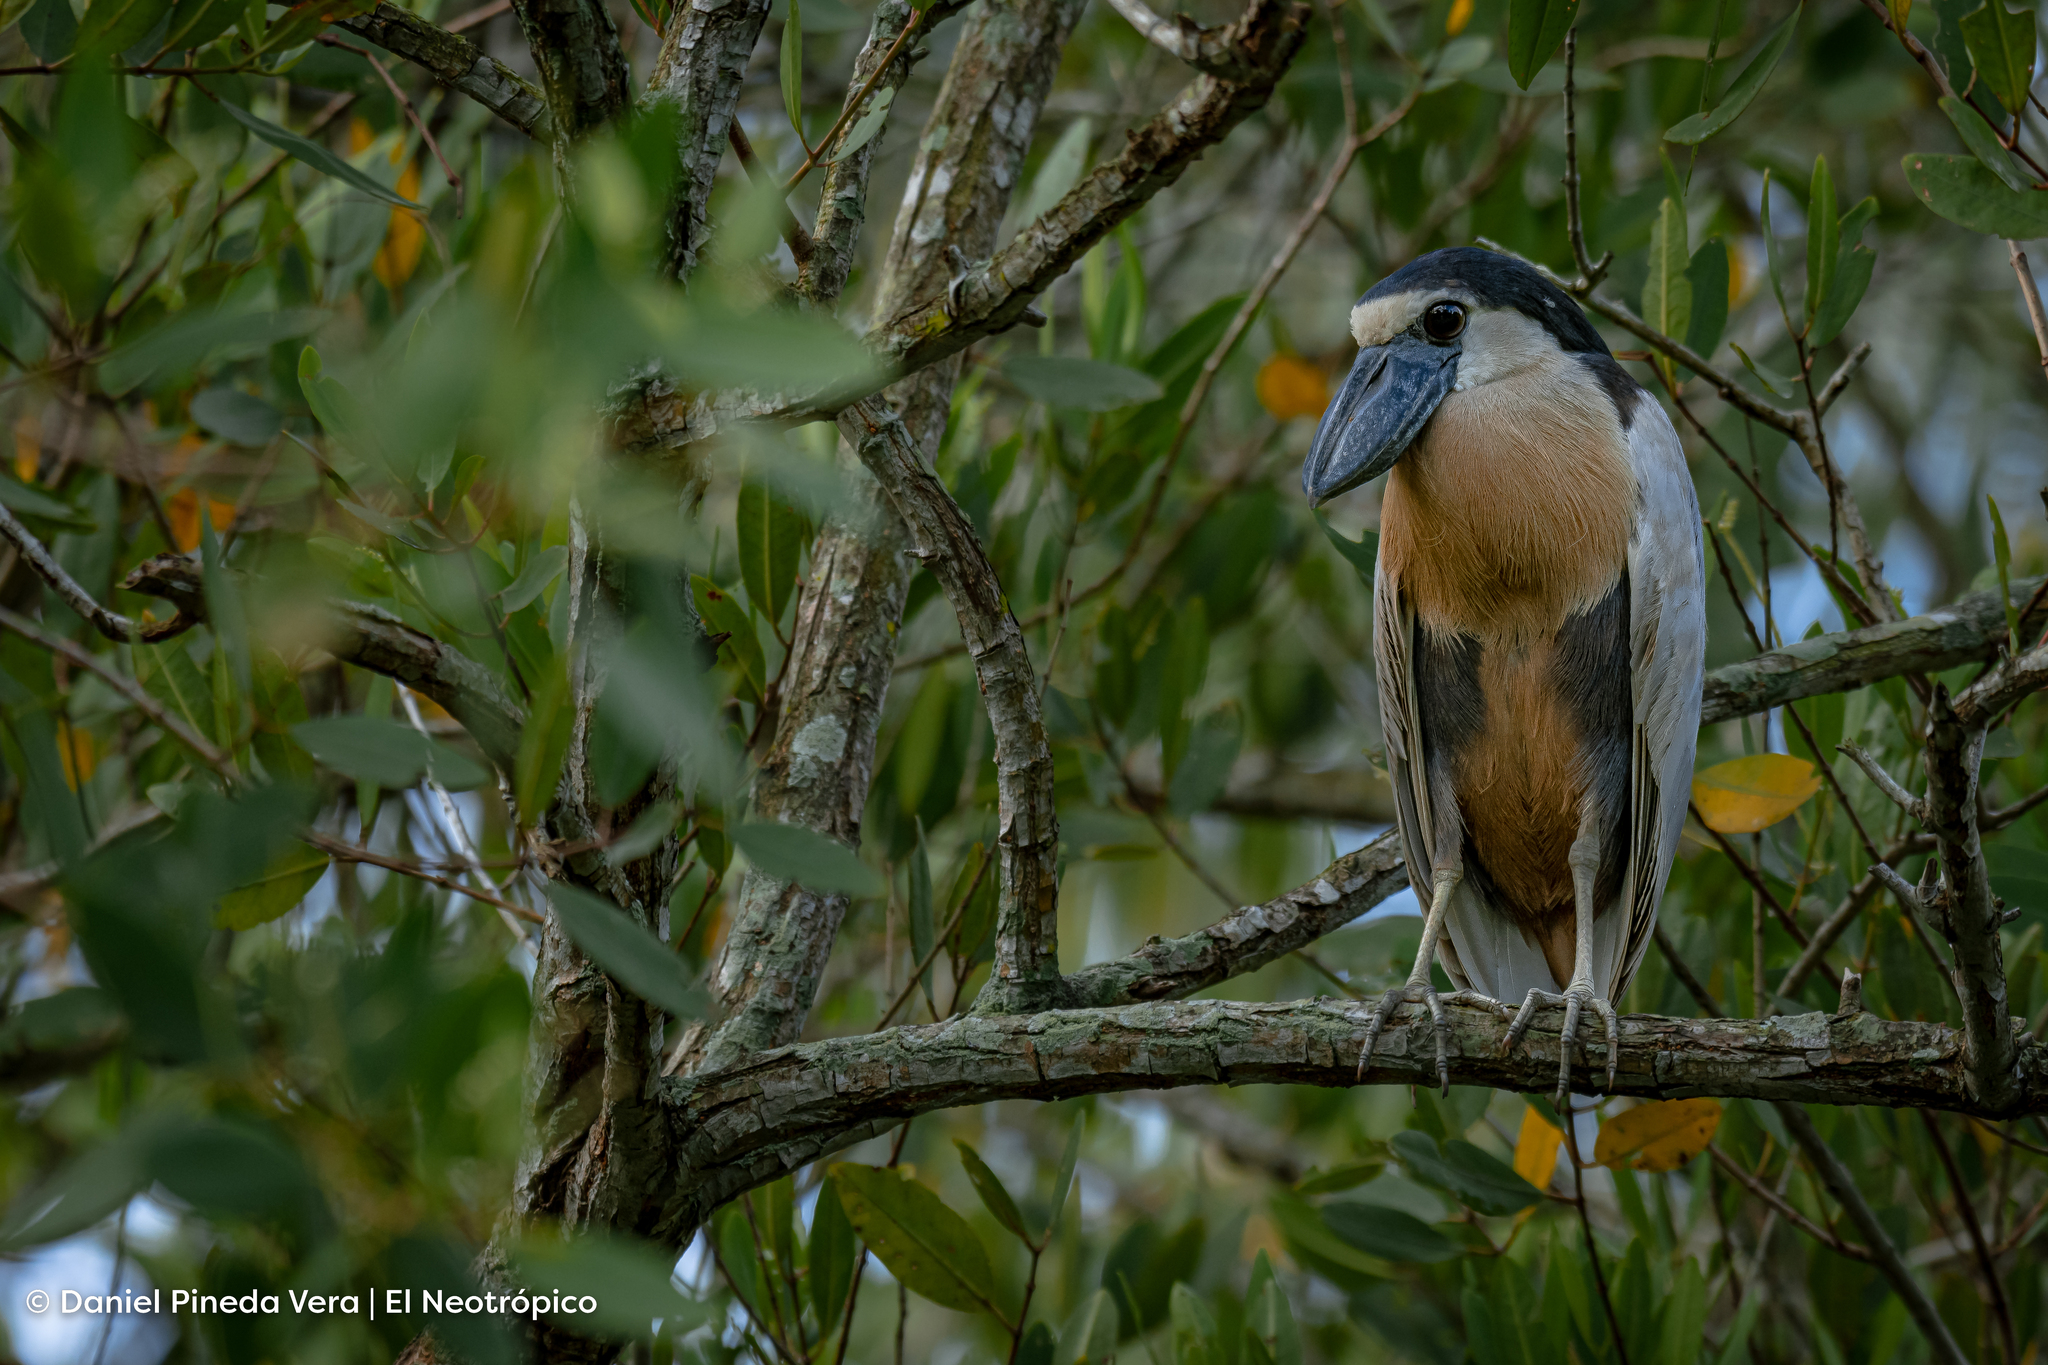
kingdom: Animalia
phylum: Chordata
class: Aves
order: Pelecaniformes
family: Ardeidae
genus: Cochlearius
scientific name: Cochlearius cochlearius
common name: Boat-billed heron
